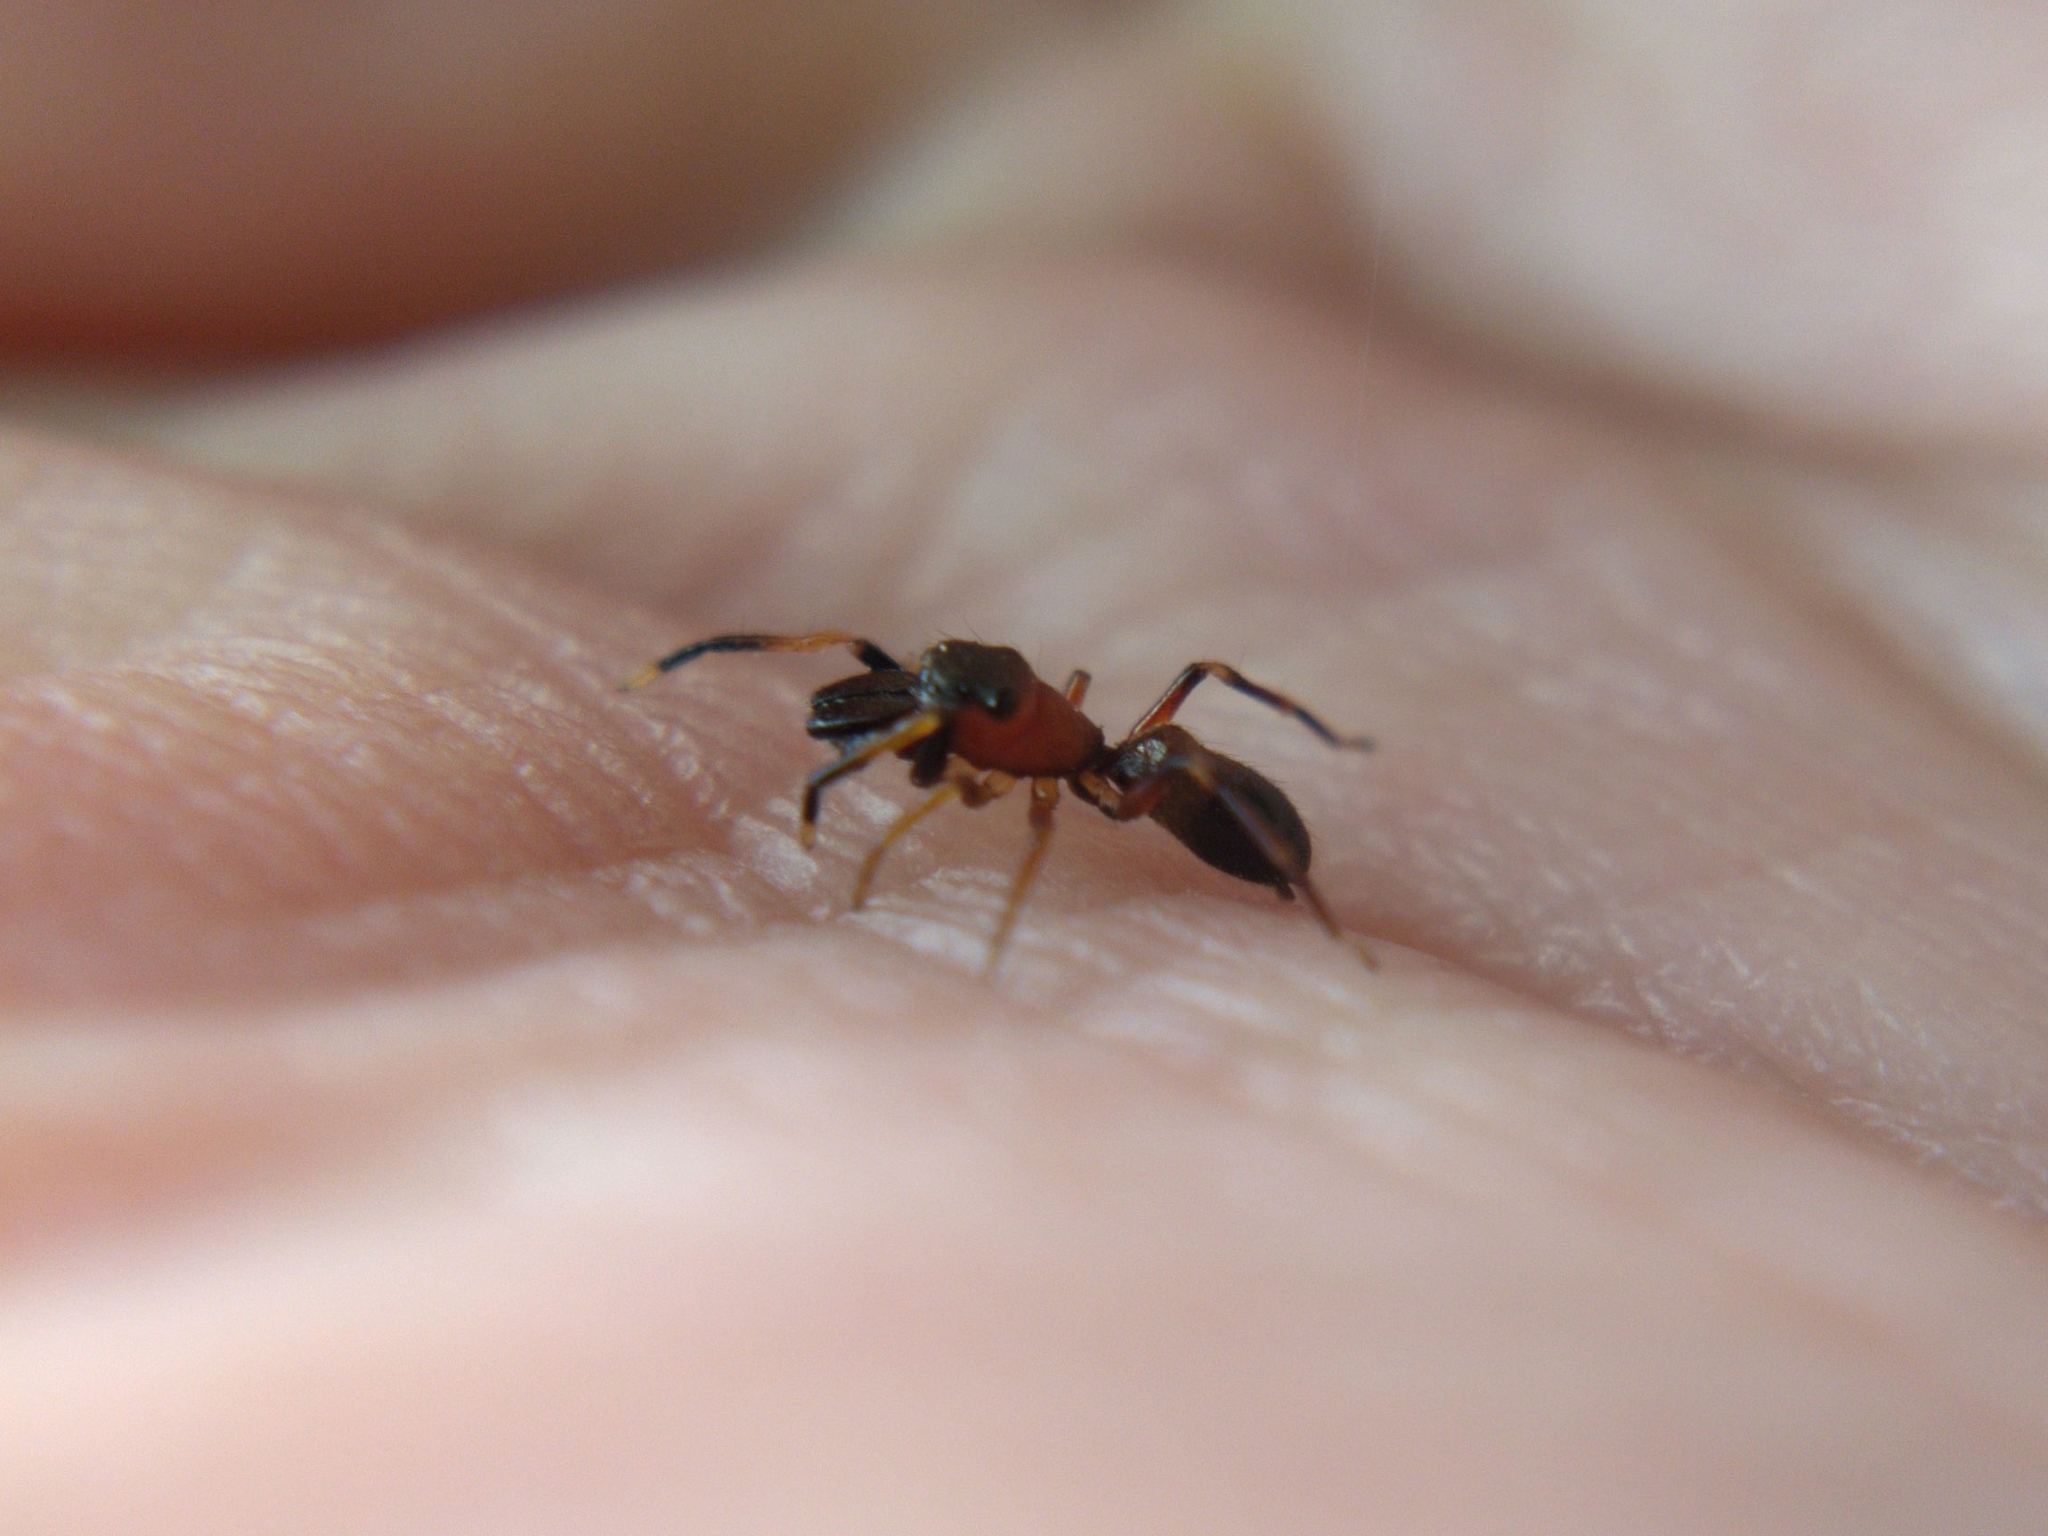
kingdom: Animalia
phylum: Arthropoda
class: Arachnida
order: Araneae
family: Salticidae
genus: Myrmarachne
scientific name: Myrmarachne formicaria
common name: Ant mimic jumping spider
